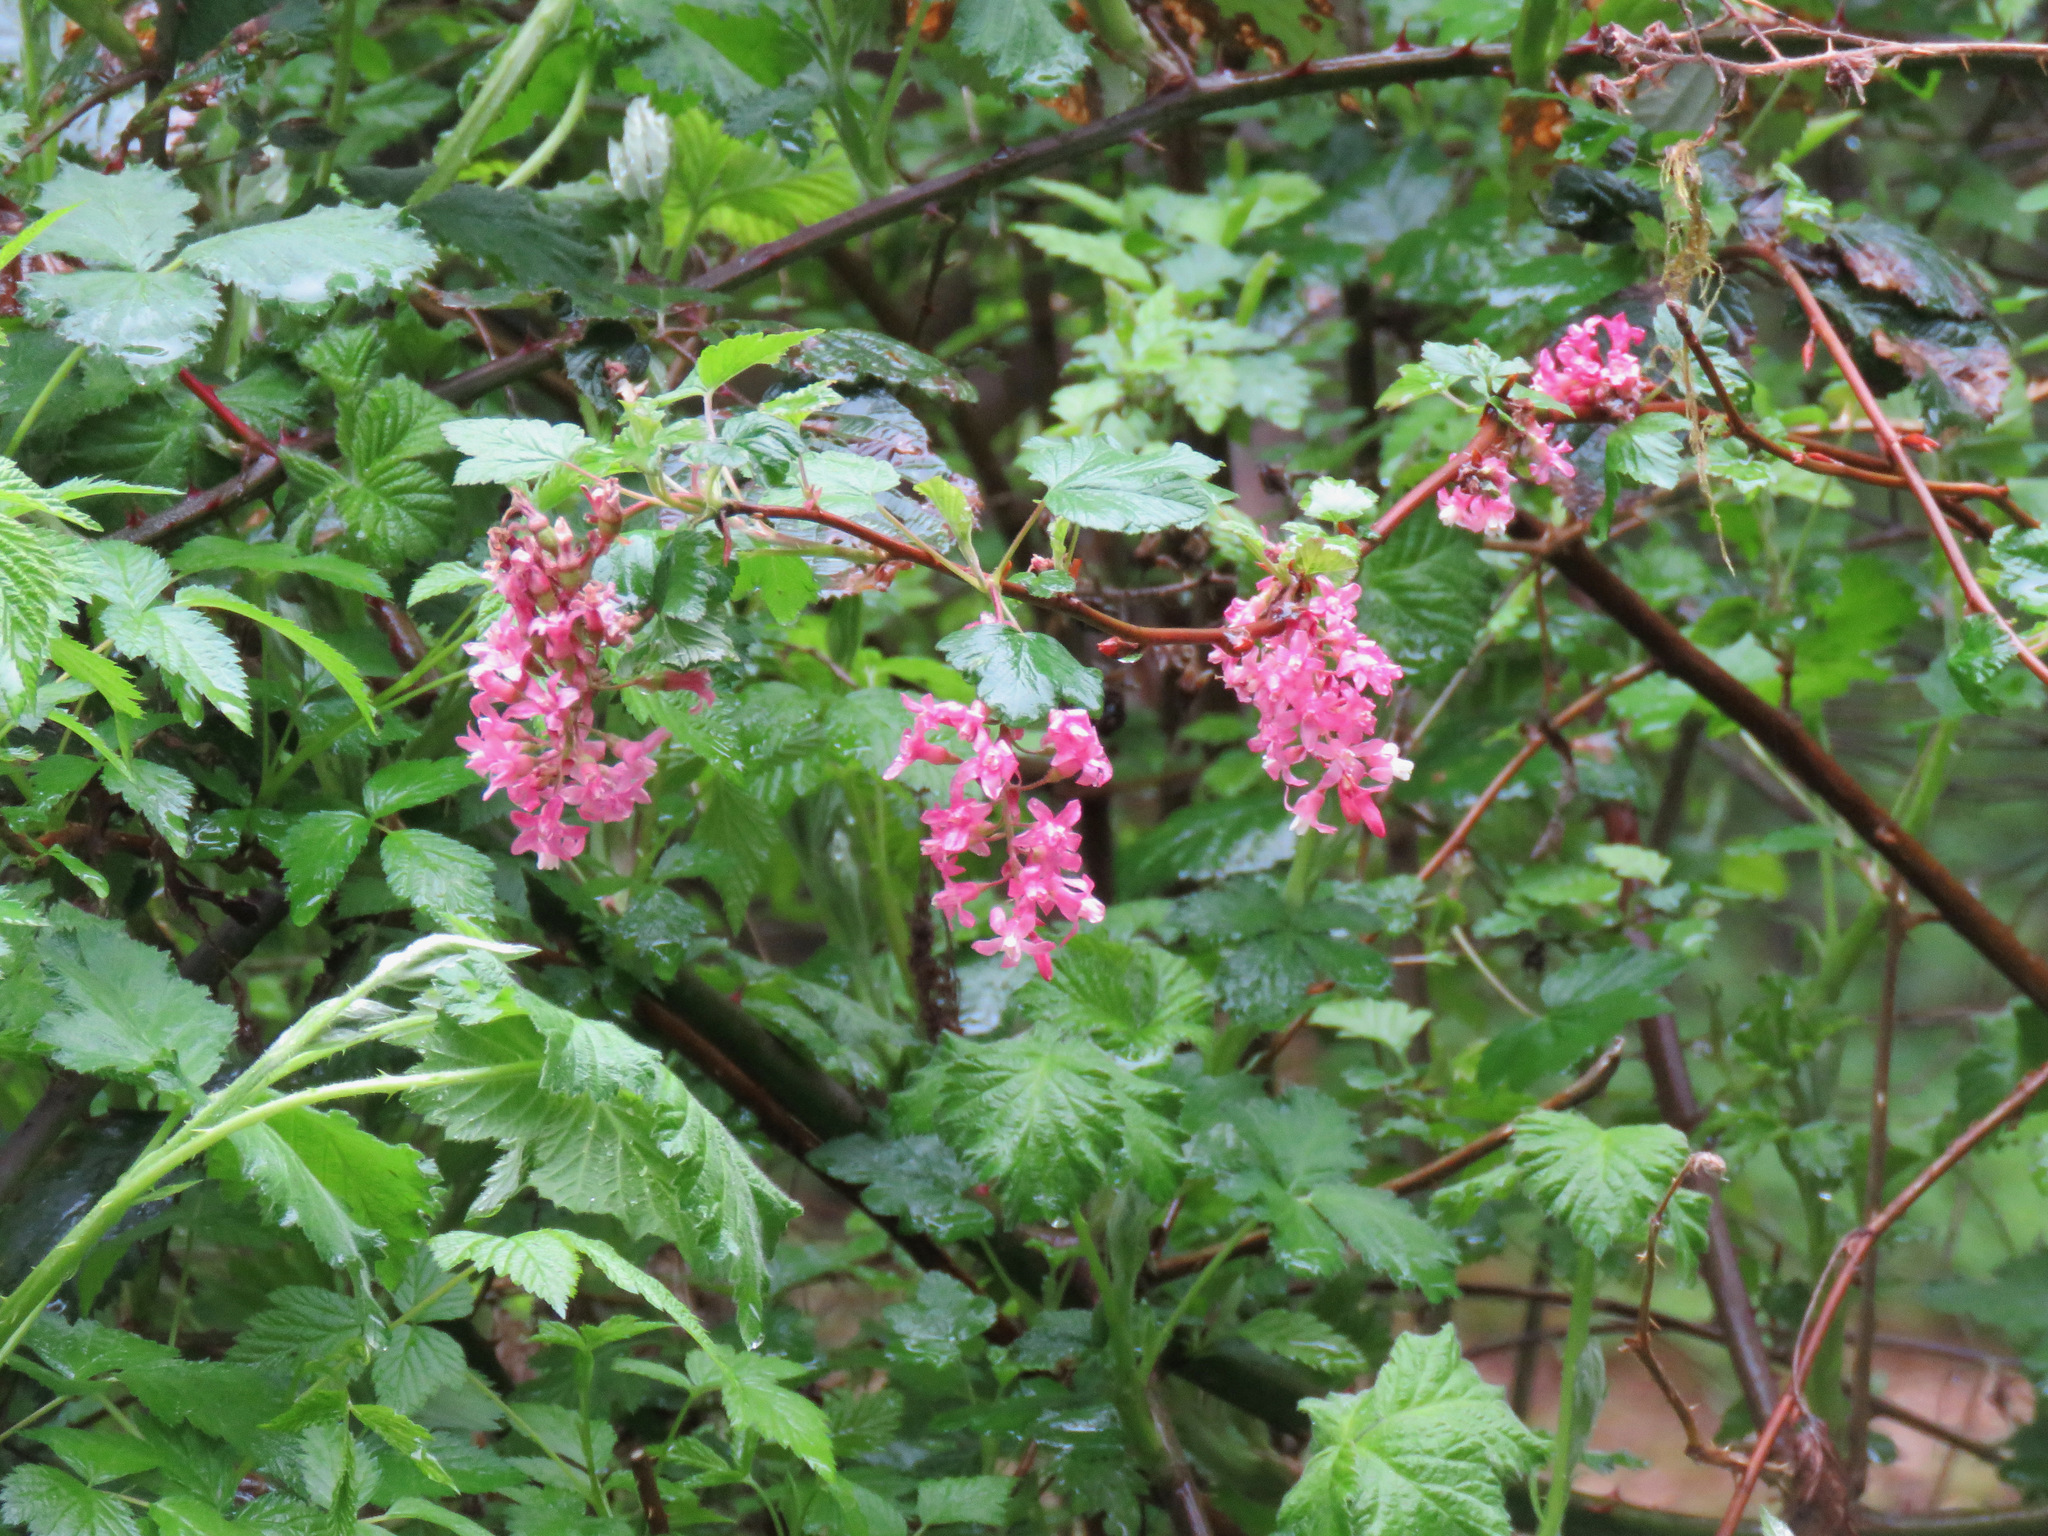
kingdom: Plantae
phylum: Tracheophyta
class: Magnoliopsida
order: Saxifragales
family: Grossulariaceae
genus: Ribes
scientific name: Ribes sanguineum
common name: Flowering currant
